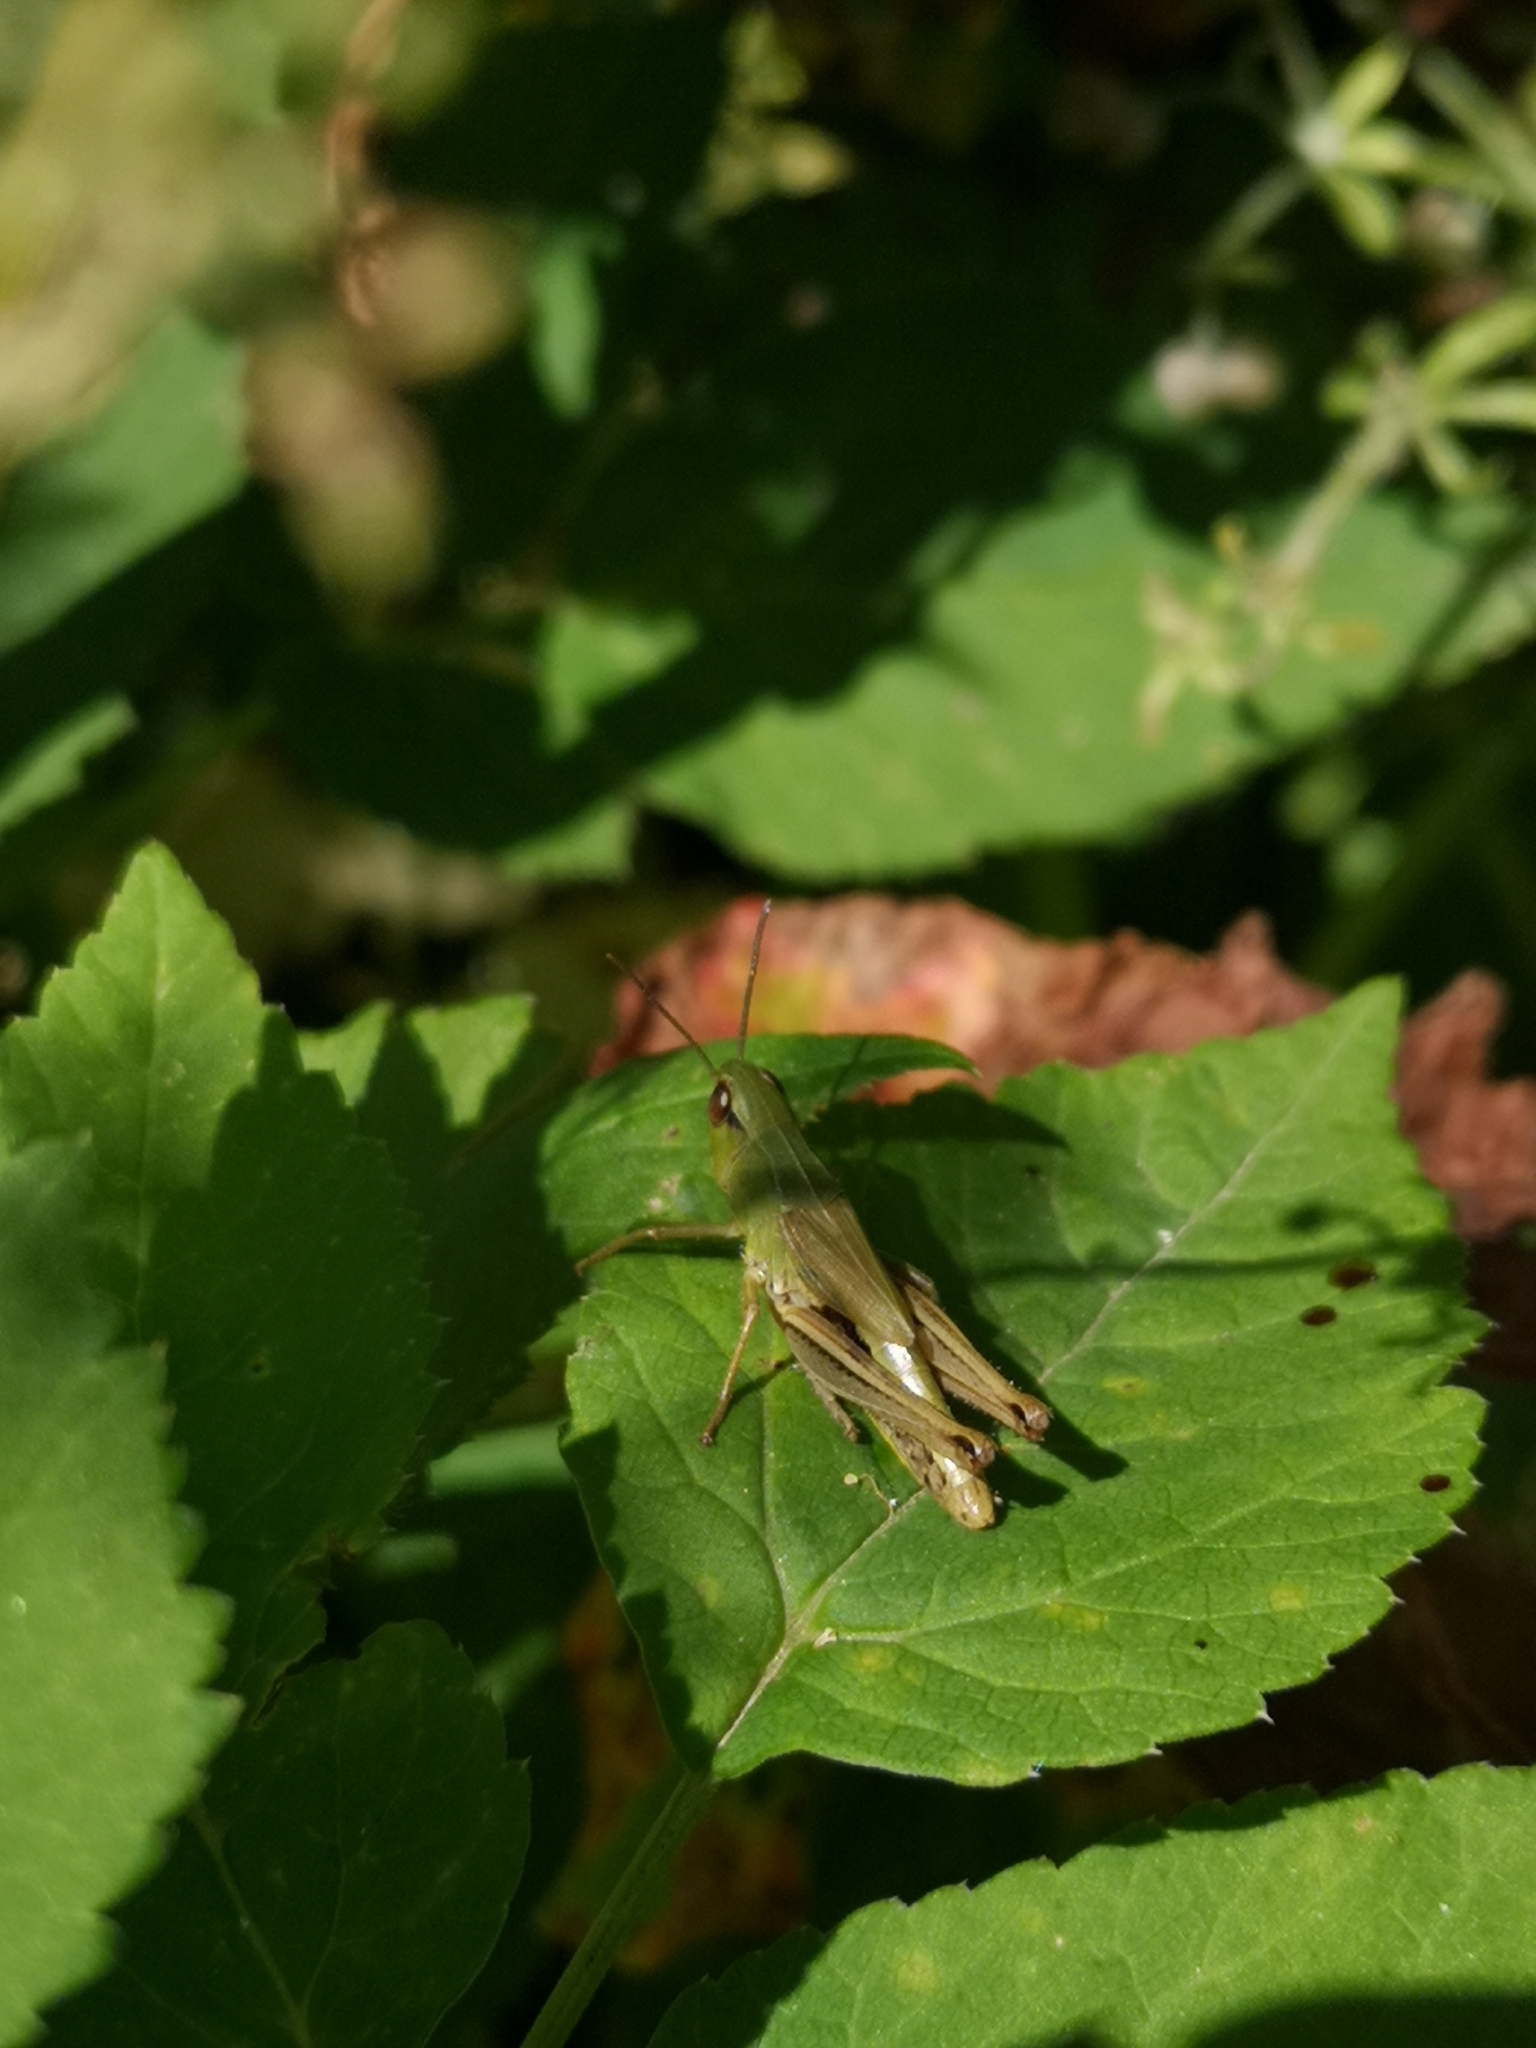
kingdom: Animalia
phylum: Arthropoda
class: Insecta
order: Orthoptera
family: Acrididae
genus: Pseudochorthippus
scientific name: Pseudochorthippus parallelus
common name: Meadow grasshopper
